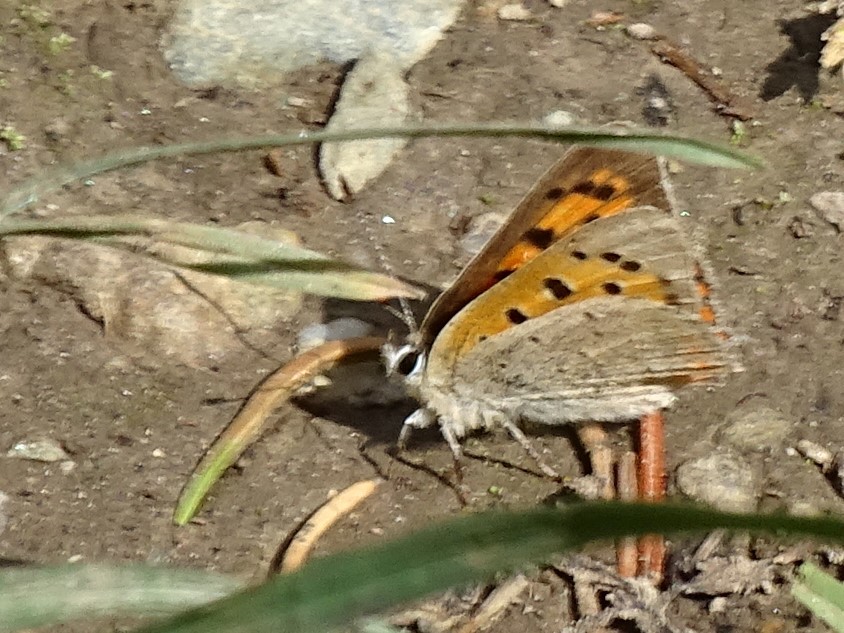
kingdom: Animalia
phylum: Arthropoda
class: Insecta
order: Lepidoptera
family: Lycaenidae
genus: Lycaena
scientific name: Lycaena phlaeas
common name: Small copper
